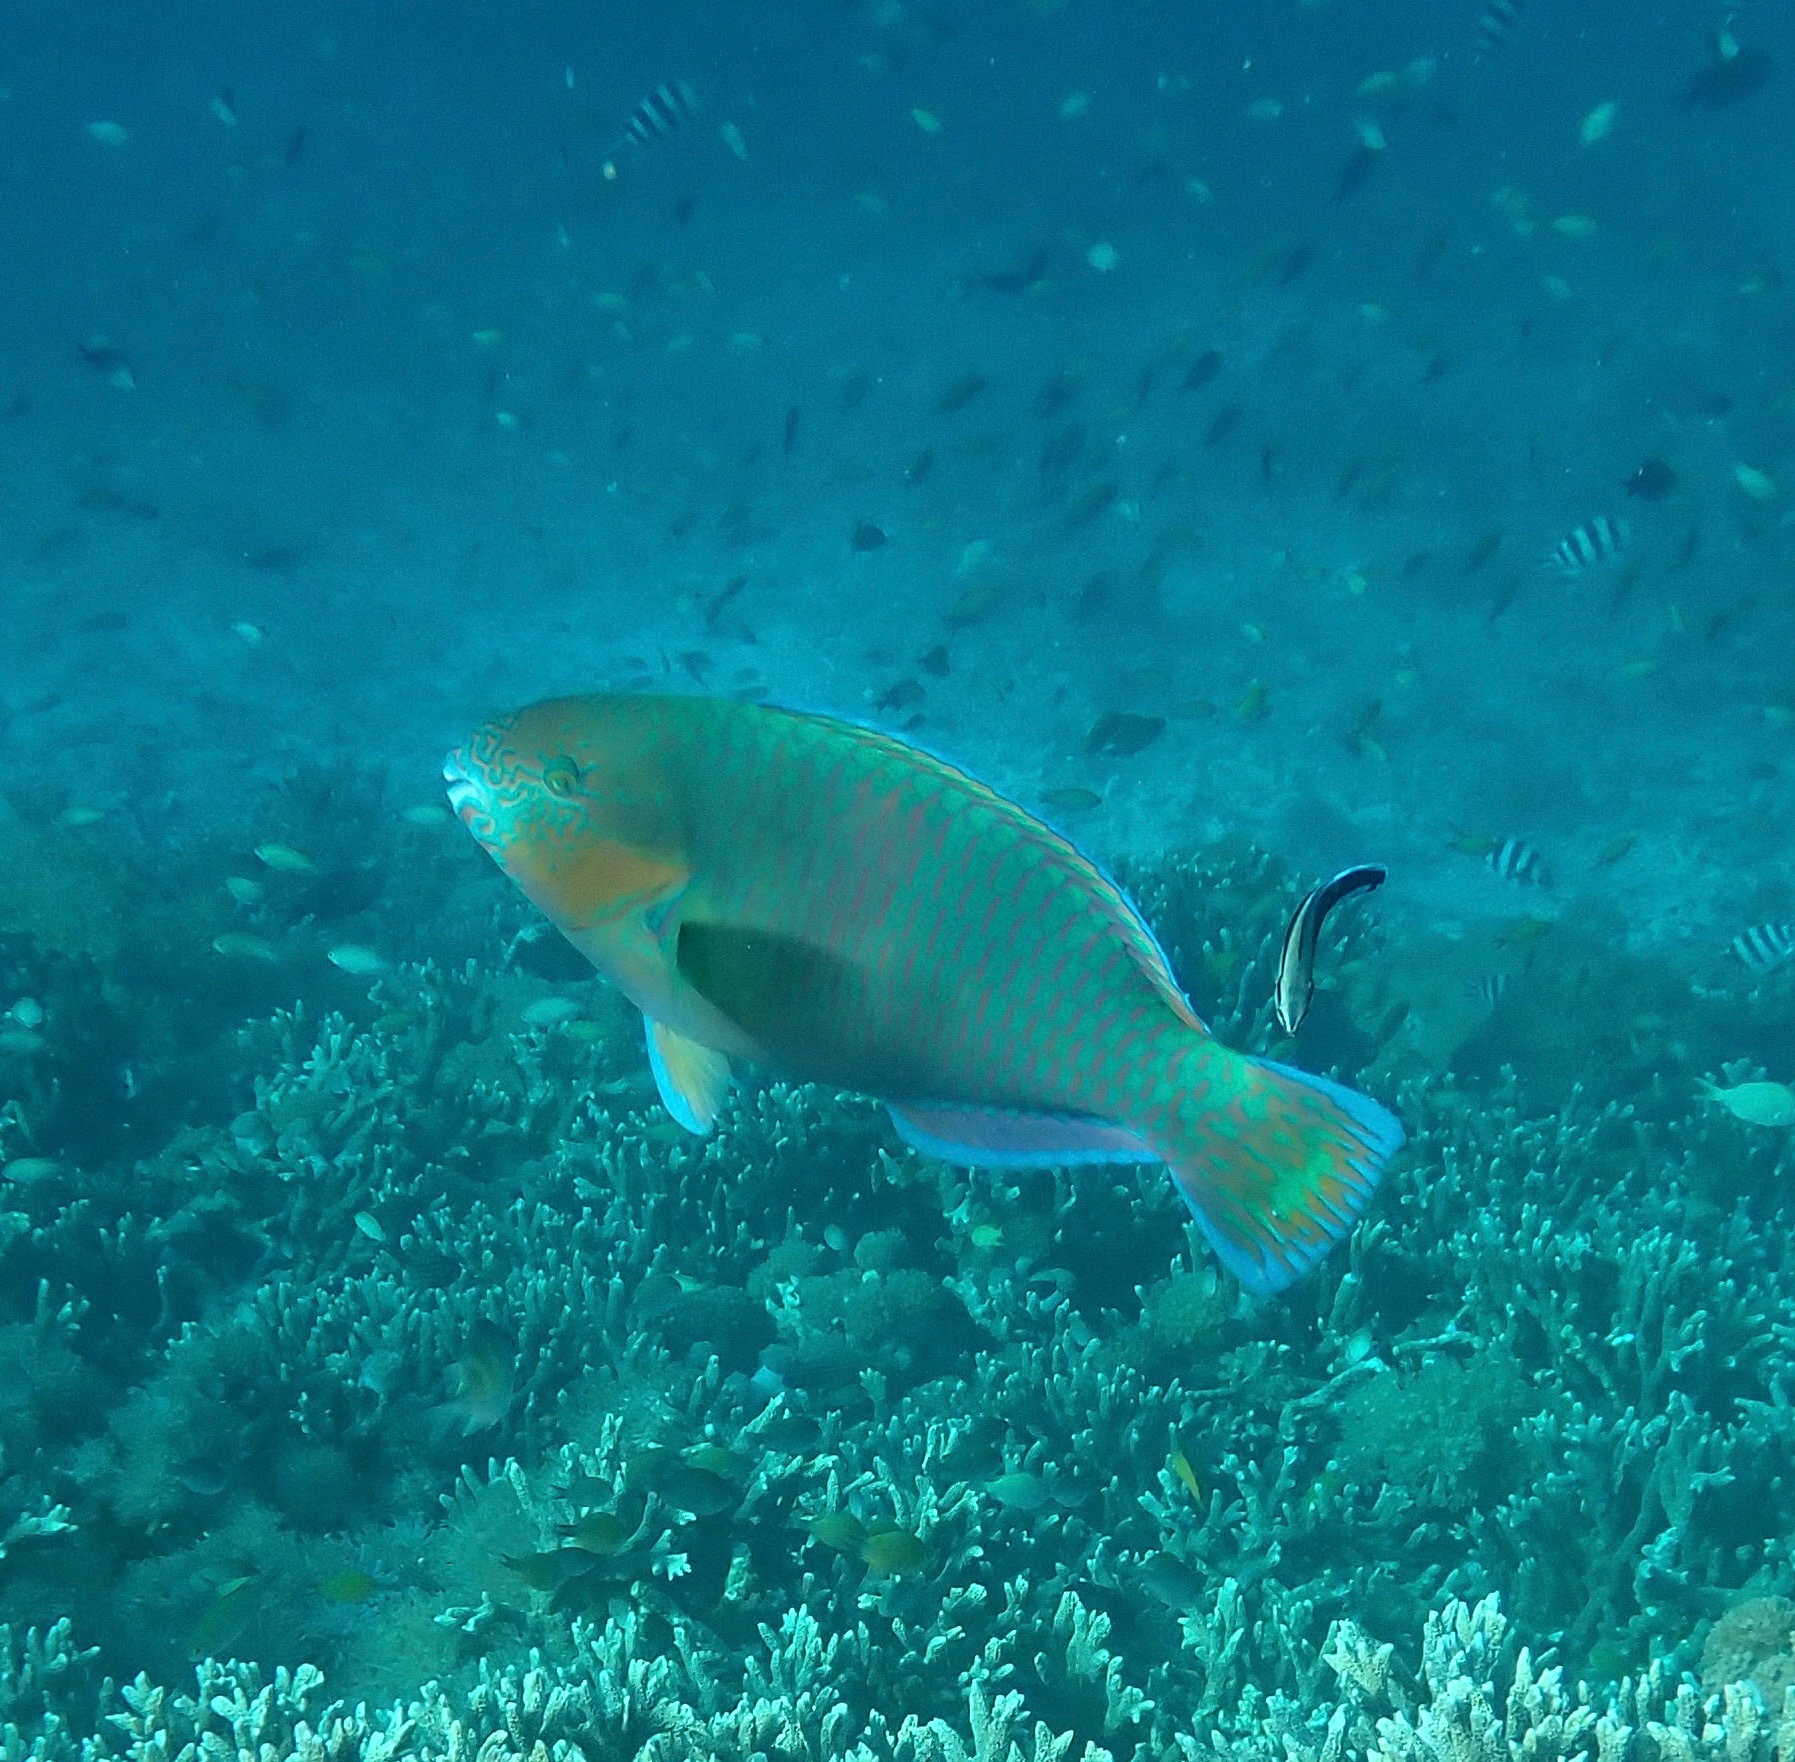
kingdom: Animalia
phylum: Chordata
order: Perciformes
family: Scaridae
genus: Scarus
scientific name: Scarus rivulatus
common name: Surf parrotfish
